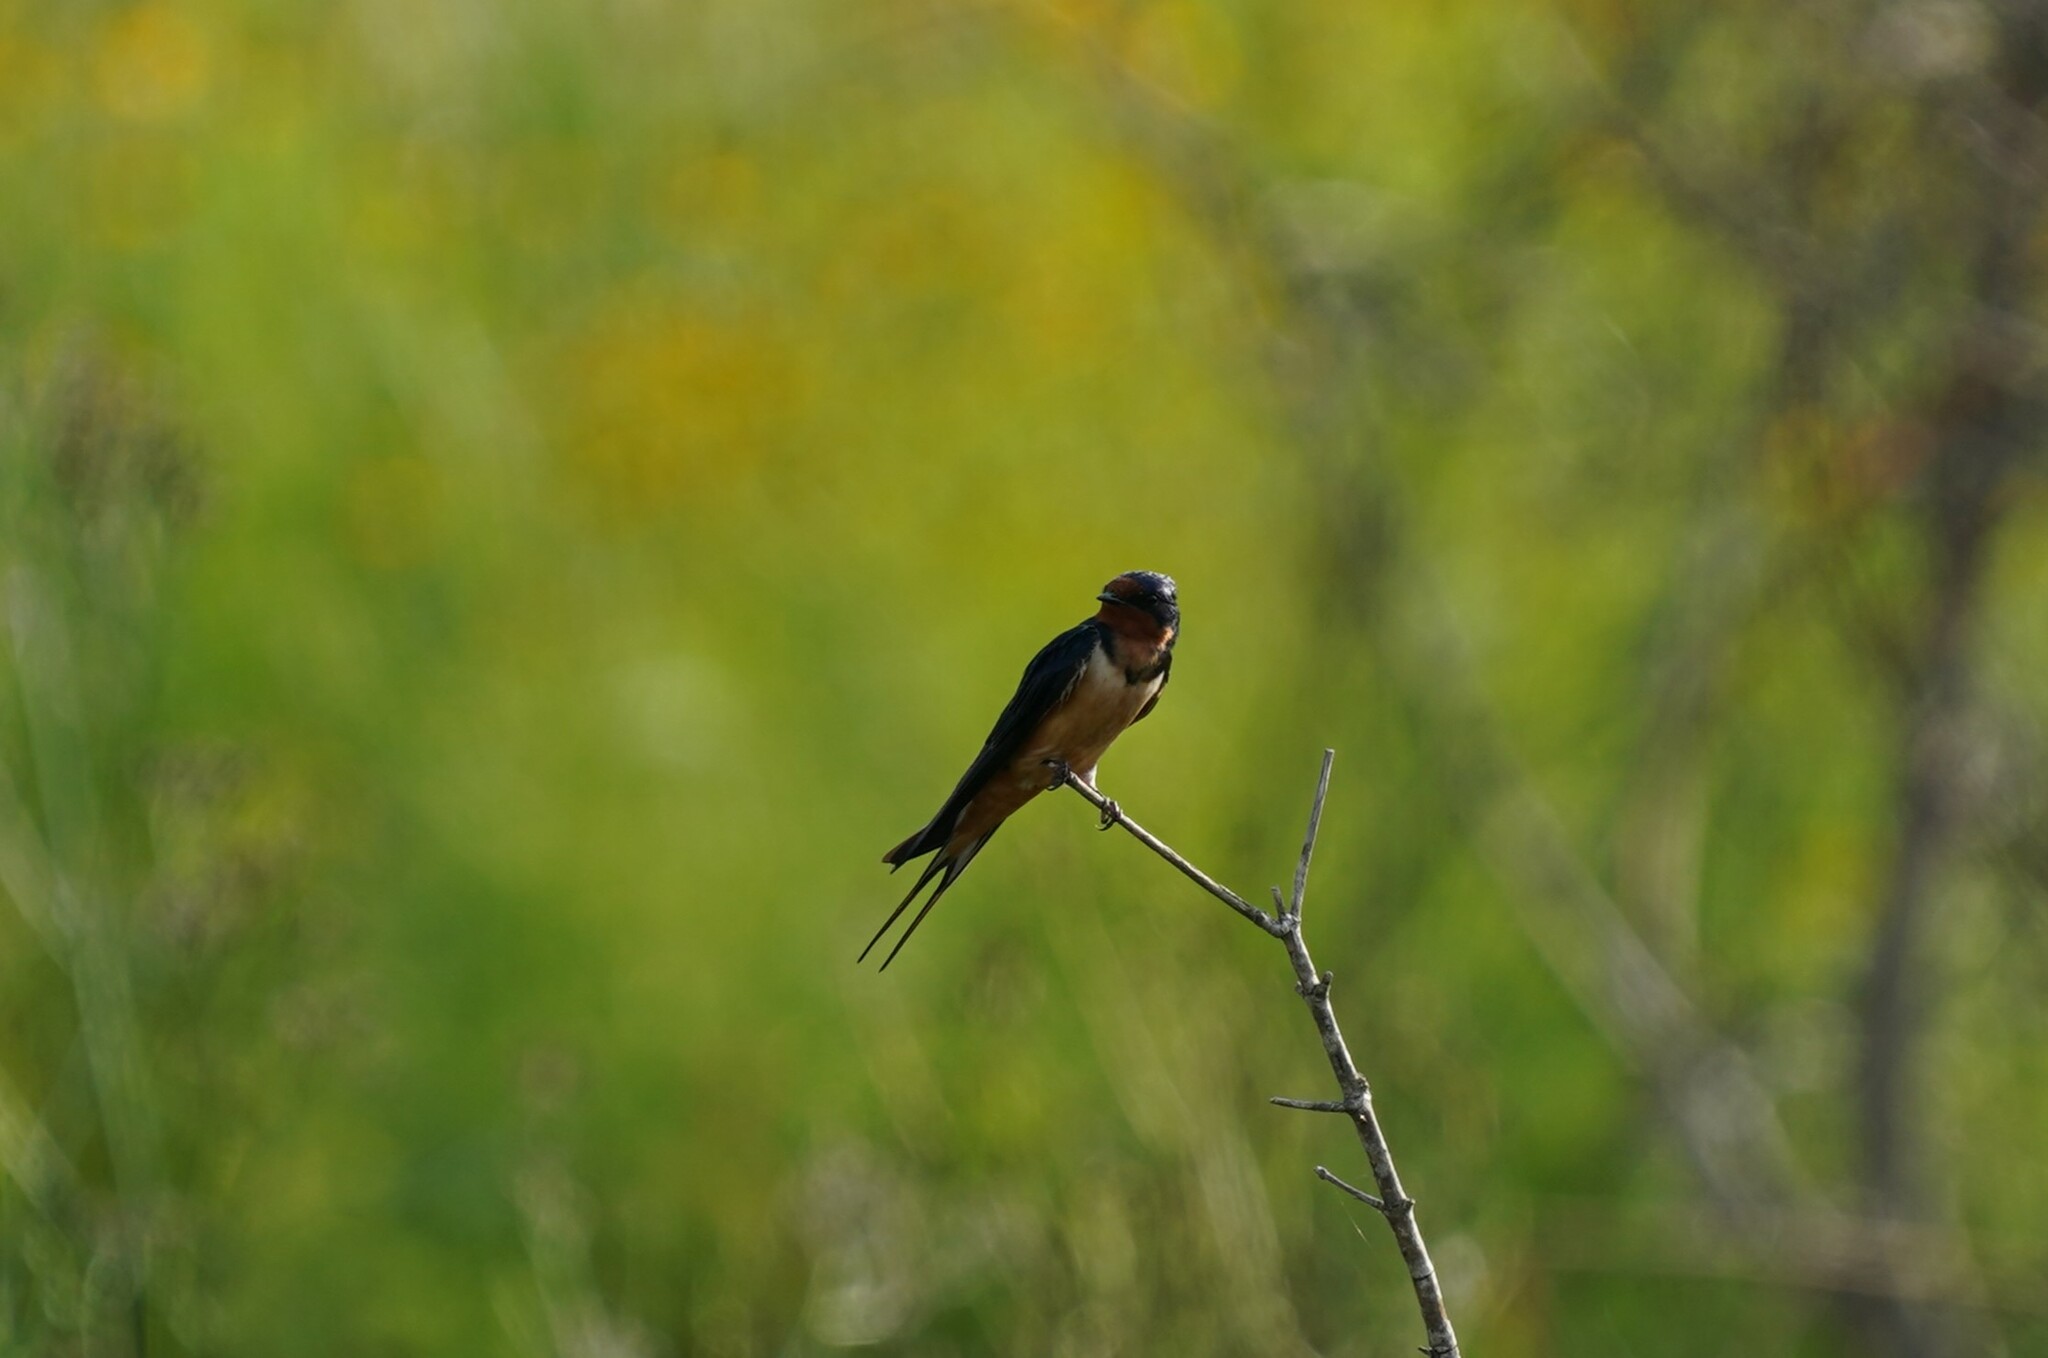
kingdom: Animalia
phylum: Chordata
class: Aves
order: Passeriformes
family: Hirundinidae
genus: Hirundo
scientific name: Hirundo rustica
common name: Barn swallow
